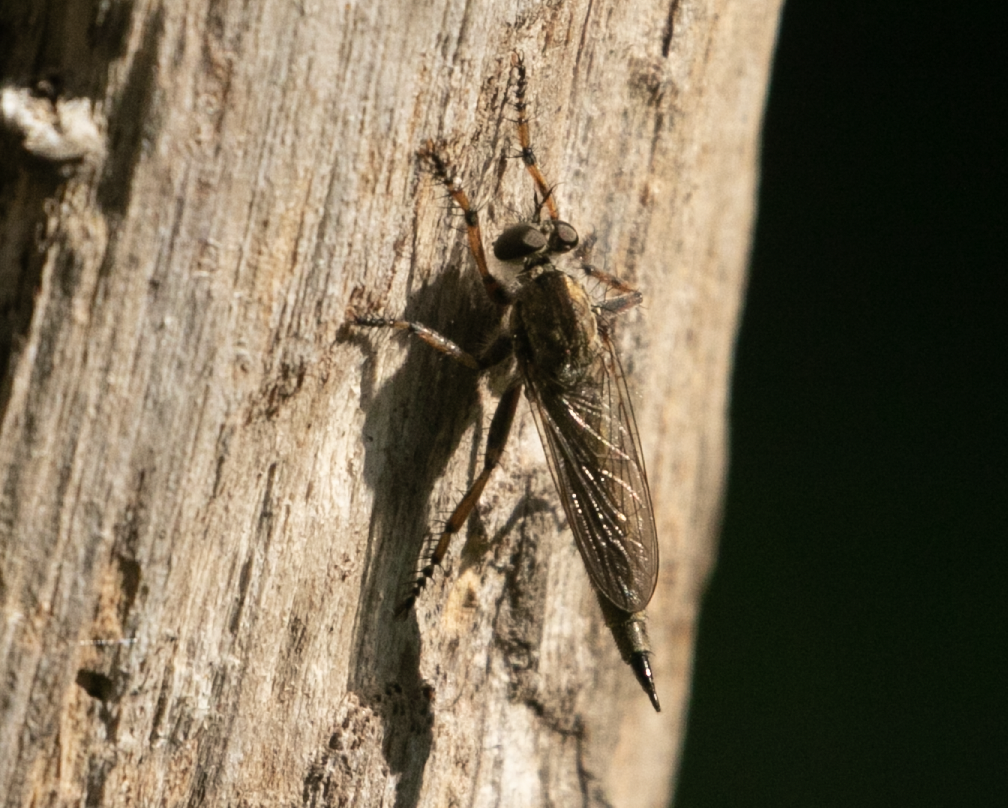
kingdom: Animalia
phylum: Arthropoda
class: Insecta
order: Diptera
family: Asilidae
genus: Epitriptus
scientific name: Epitriptus cingulatus
